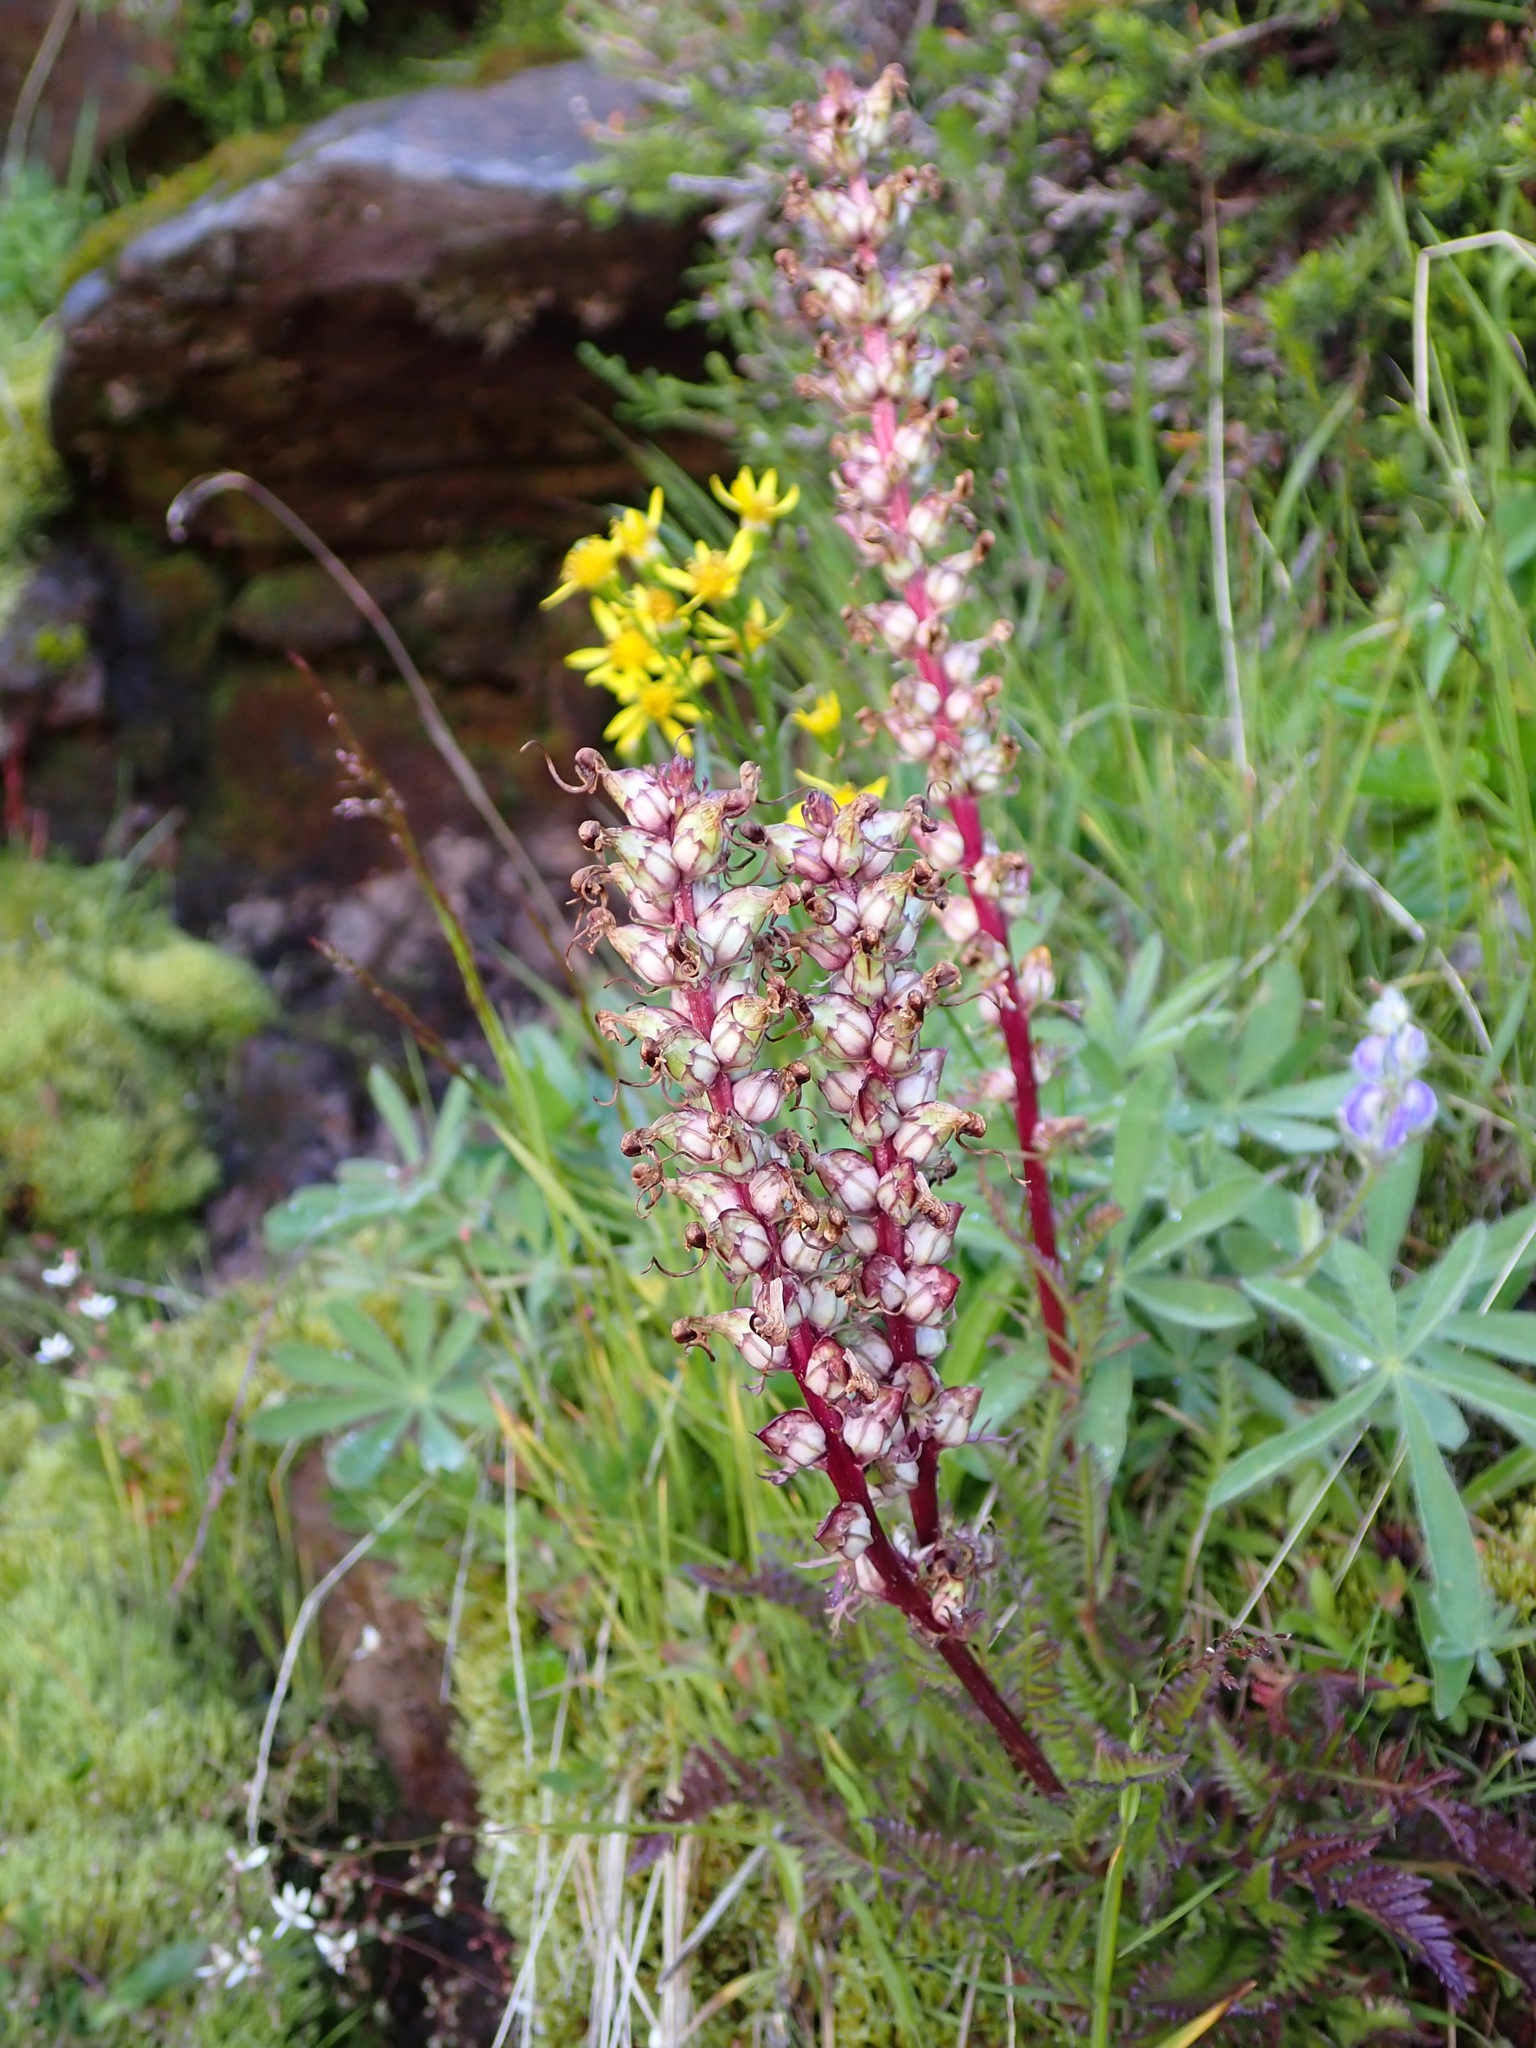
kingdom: Plantae
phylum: Tracheophyta
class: Magnoliopsida
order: Lamiales
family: Orobanchaceae
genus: Pedicularis
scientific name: Pedicularis groenlandica
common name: Elephant's-head
